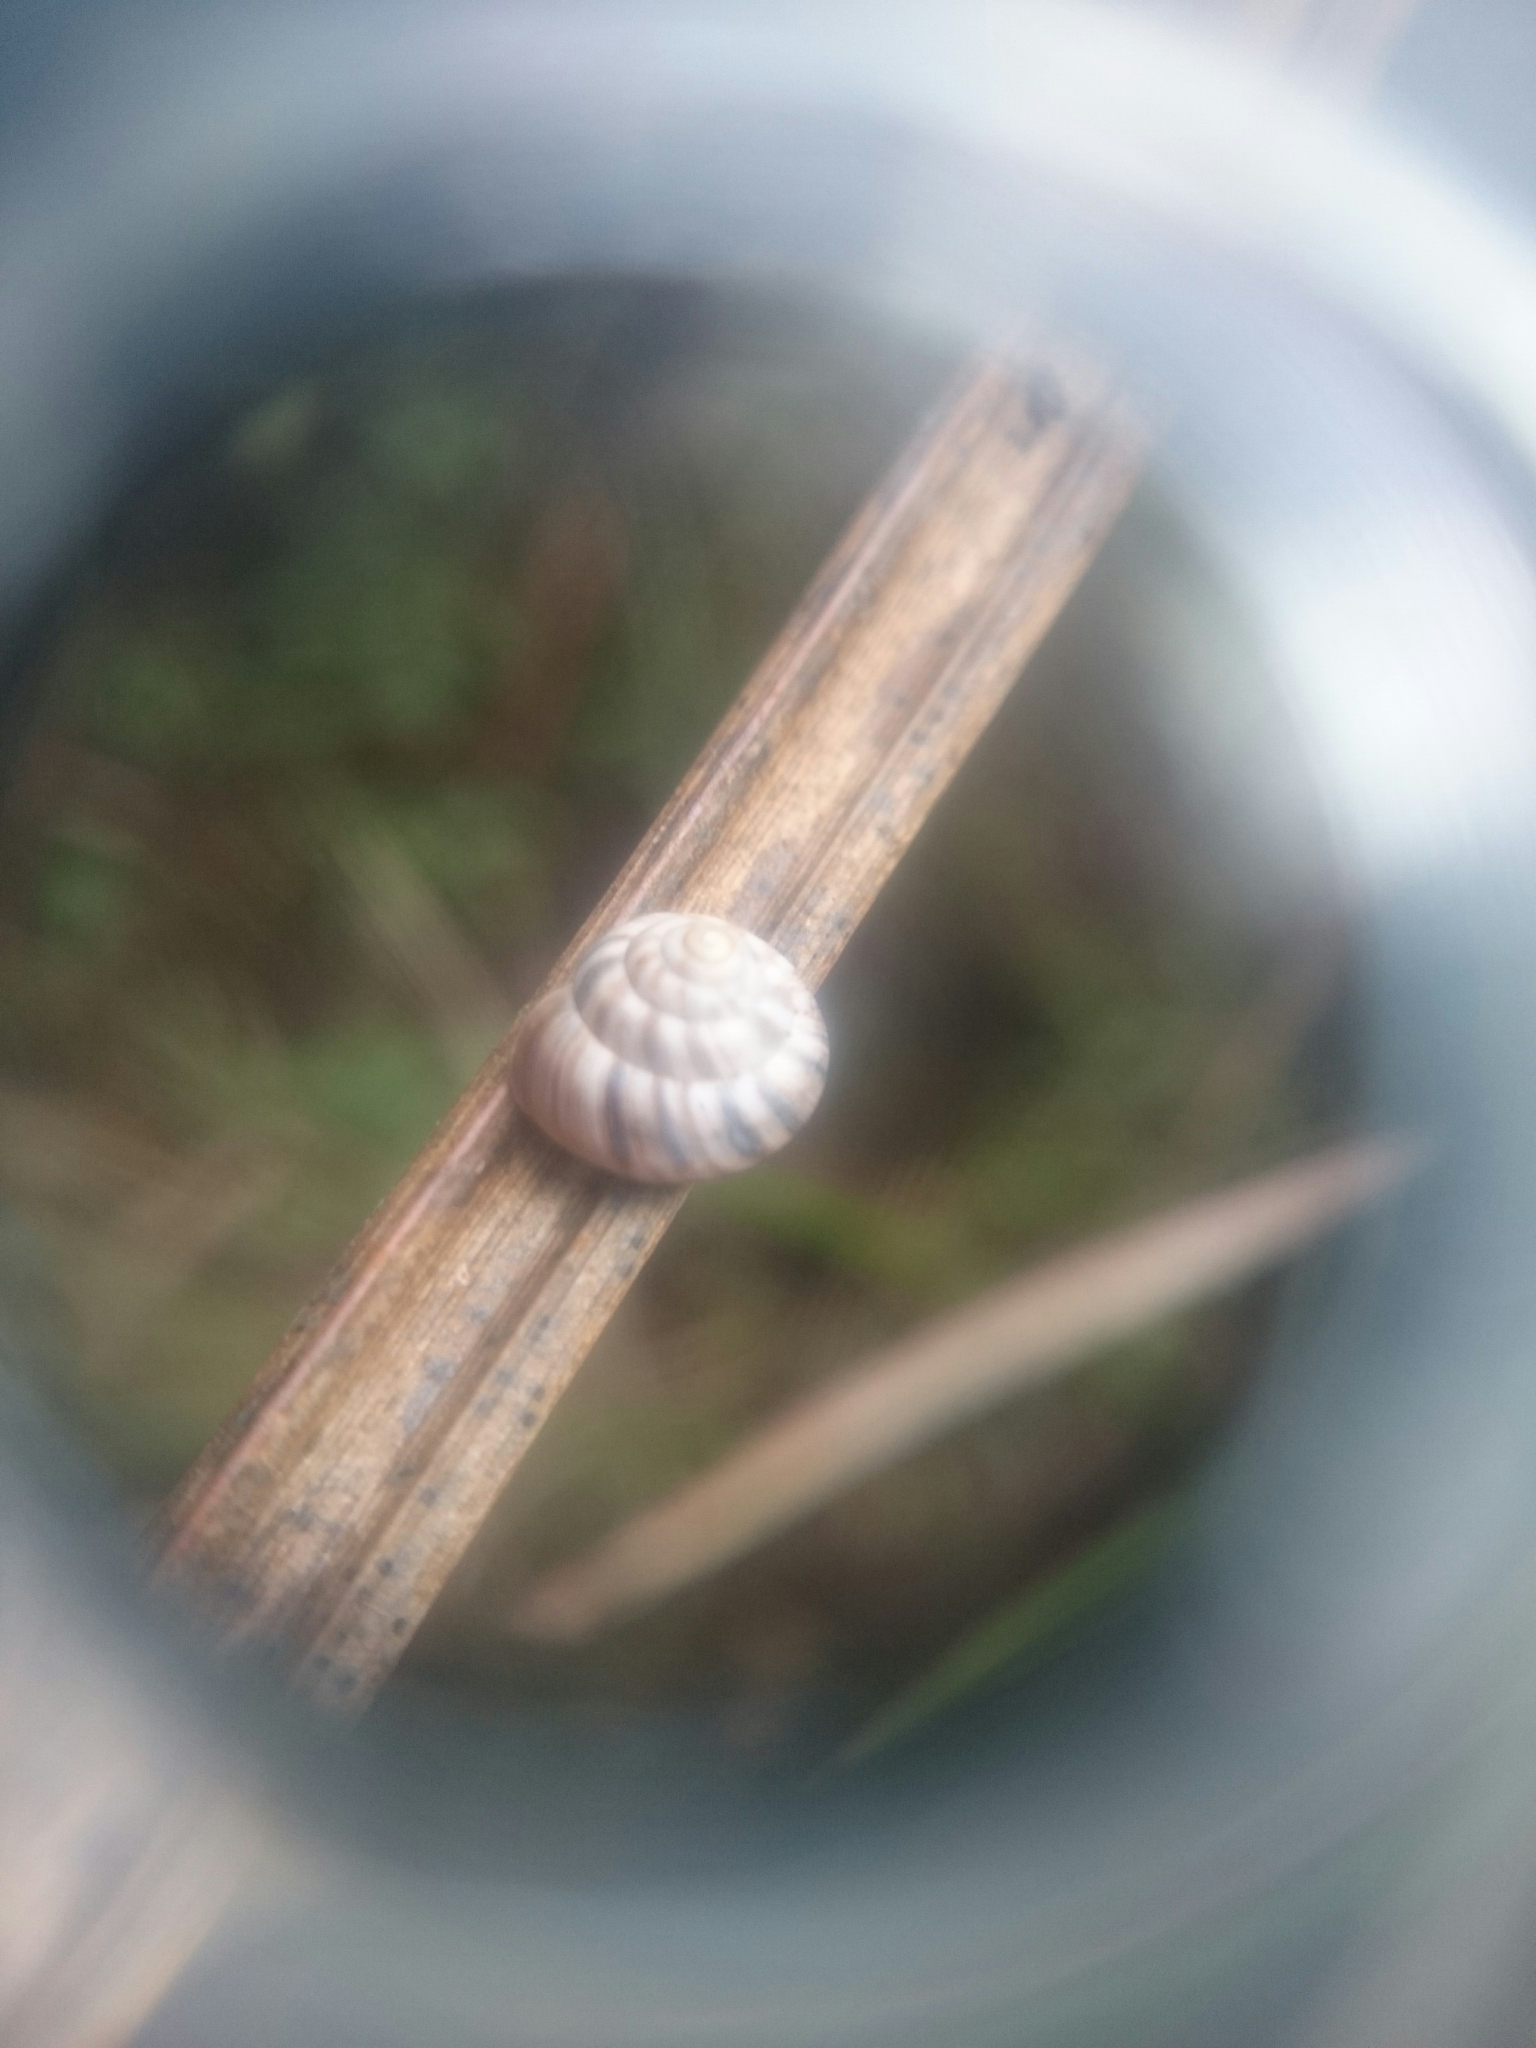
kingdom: Animalia
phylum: Mollusca
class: Gastropoda
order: Stylommatophora
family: Charopidae
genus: Serpho
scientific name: Serpho
